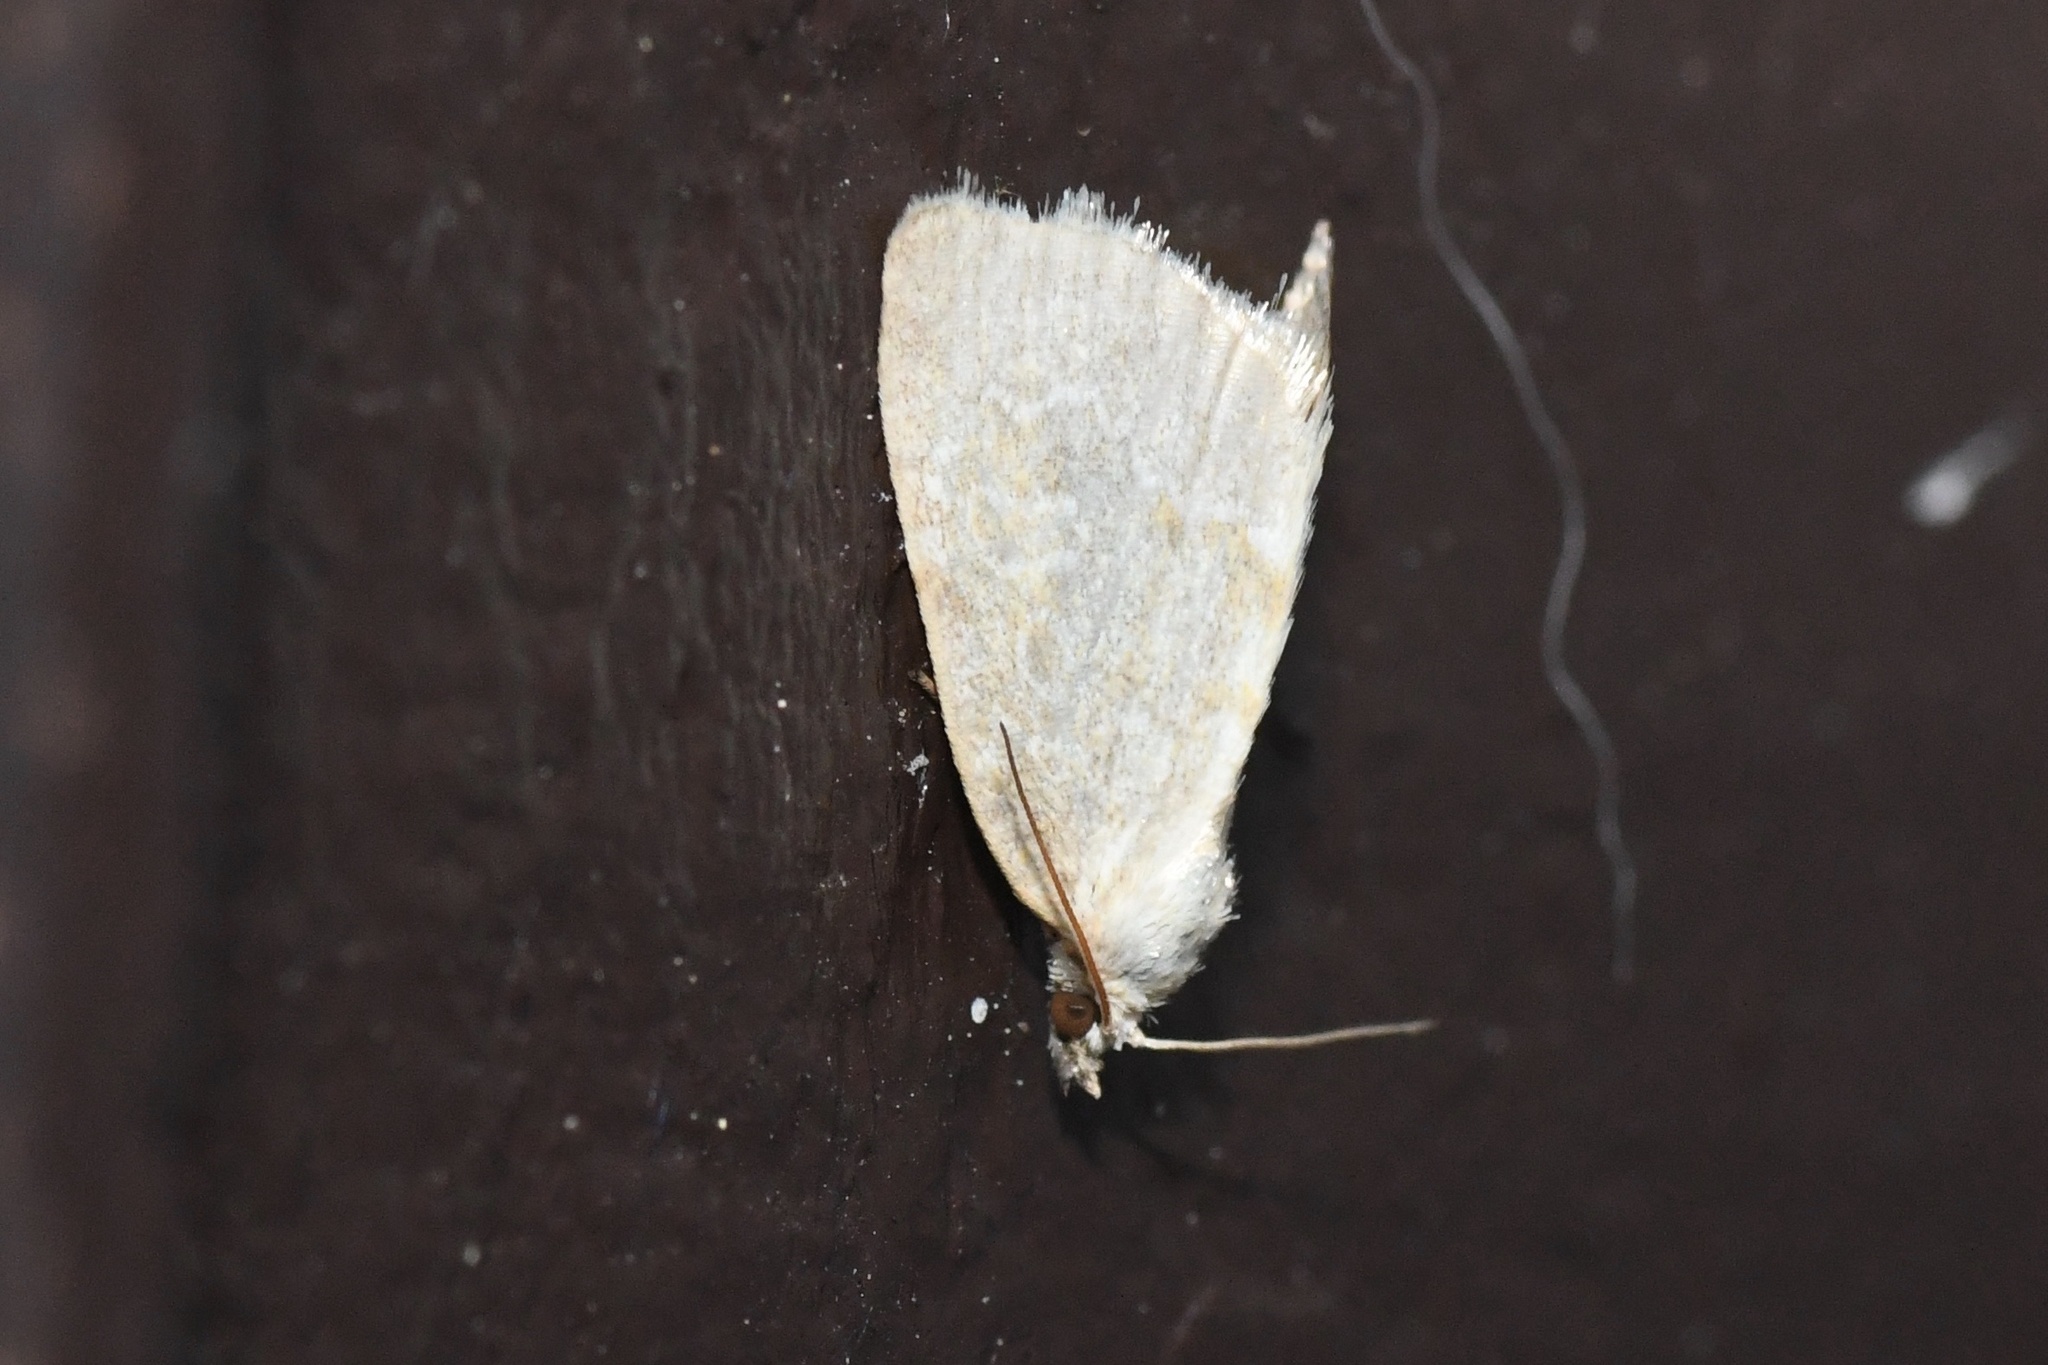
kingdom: Animalia
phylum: Arthropoda
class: Insecta
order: Lepidoptera
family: Noctuidae
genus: Protodeltote
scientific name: Protodeltote albidula
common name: Pale glyph
